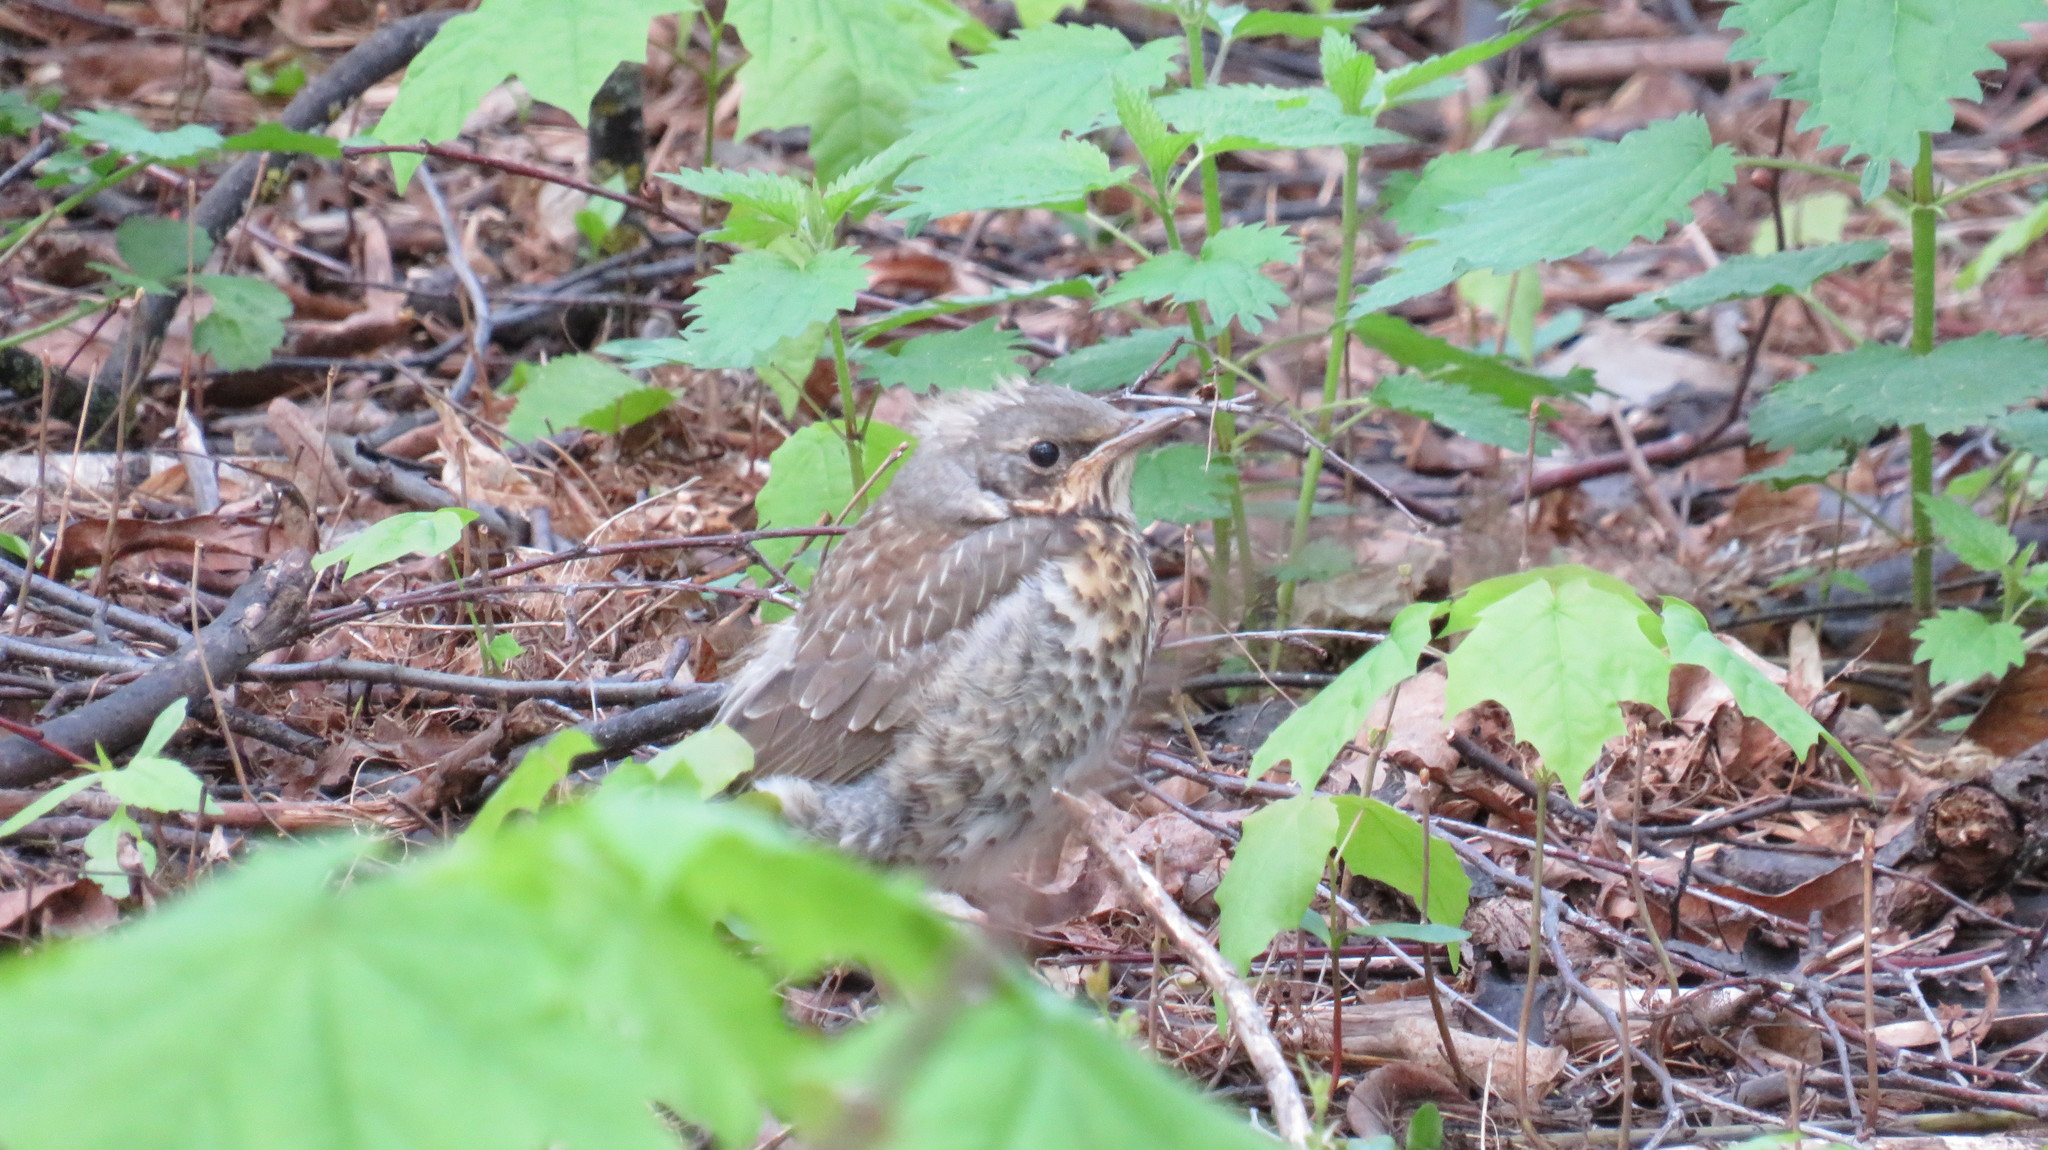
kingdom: Animalia
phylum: Chordata
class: Aves
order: Passeriformes
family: Turdidae
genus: Turdus
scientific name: Turdus pilaris
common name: Fieldfare
